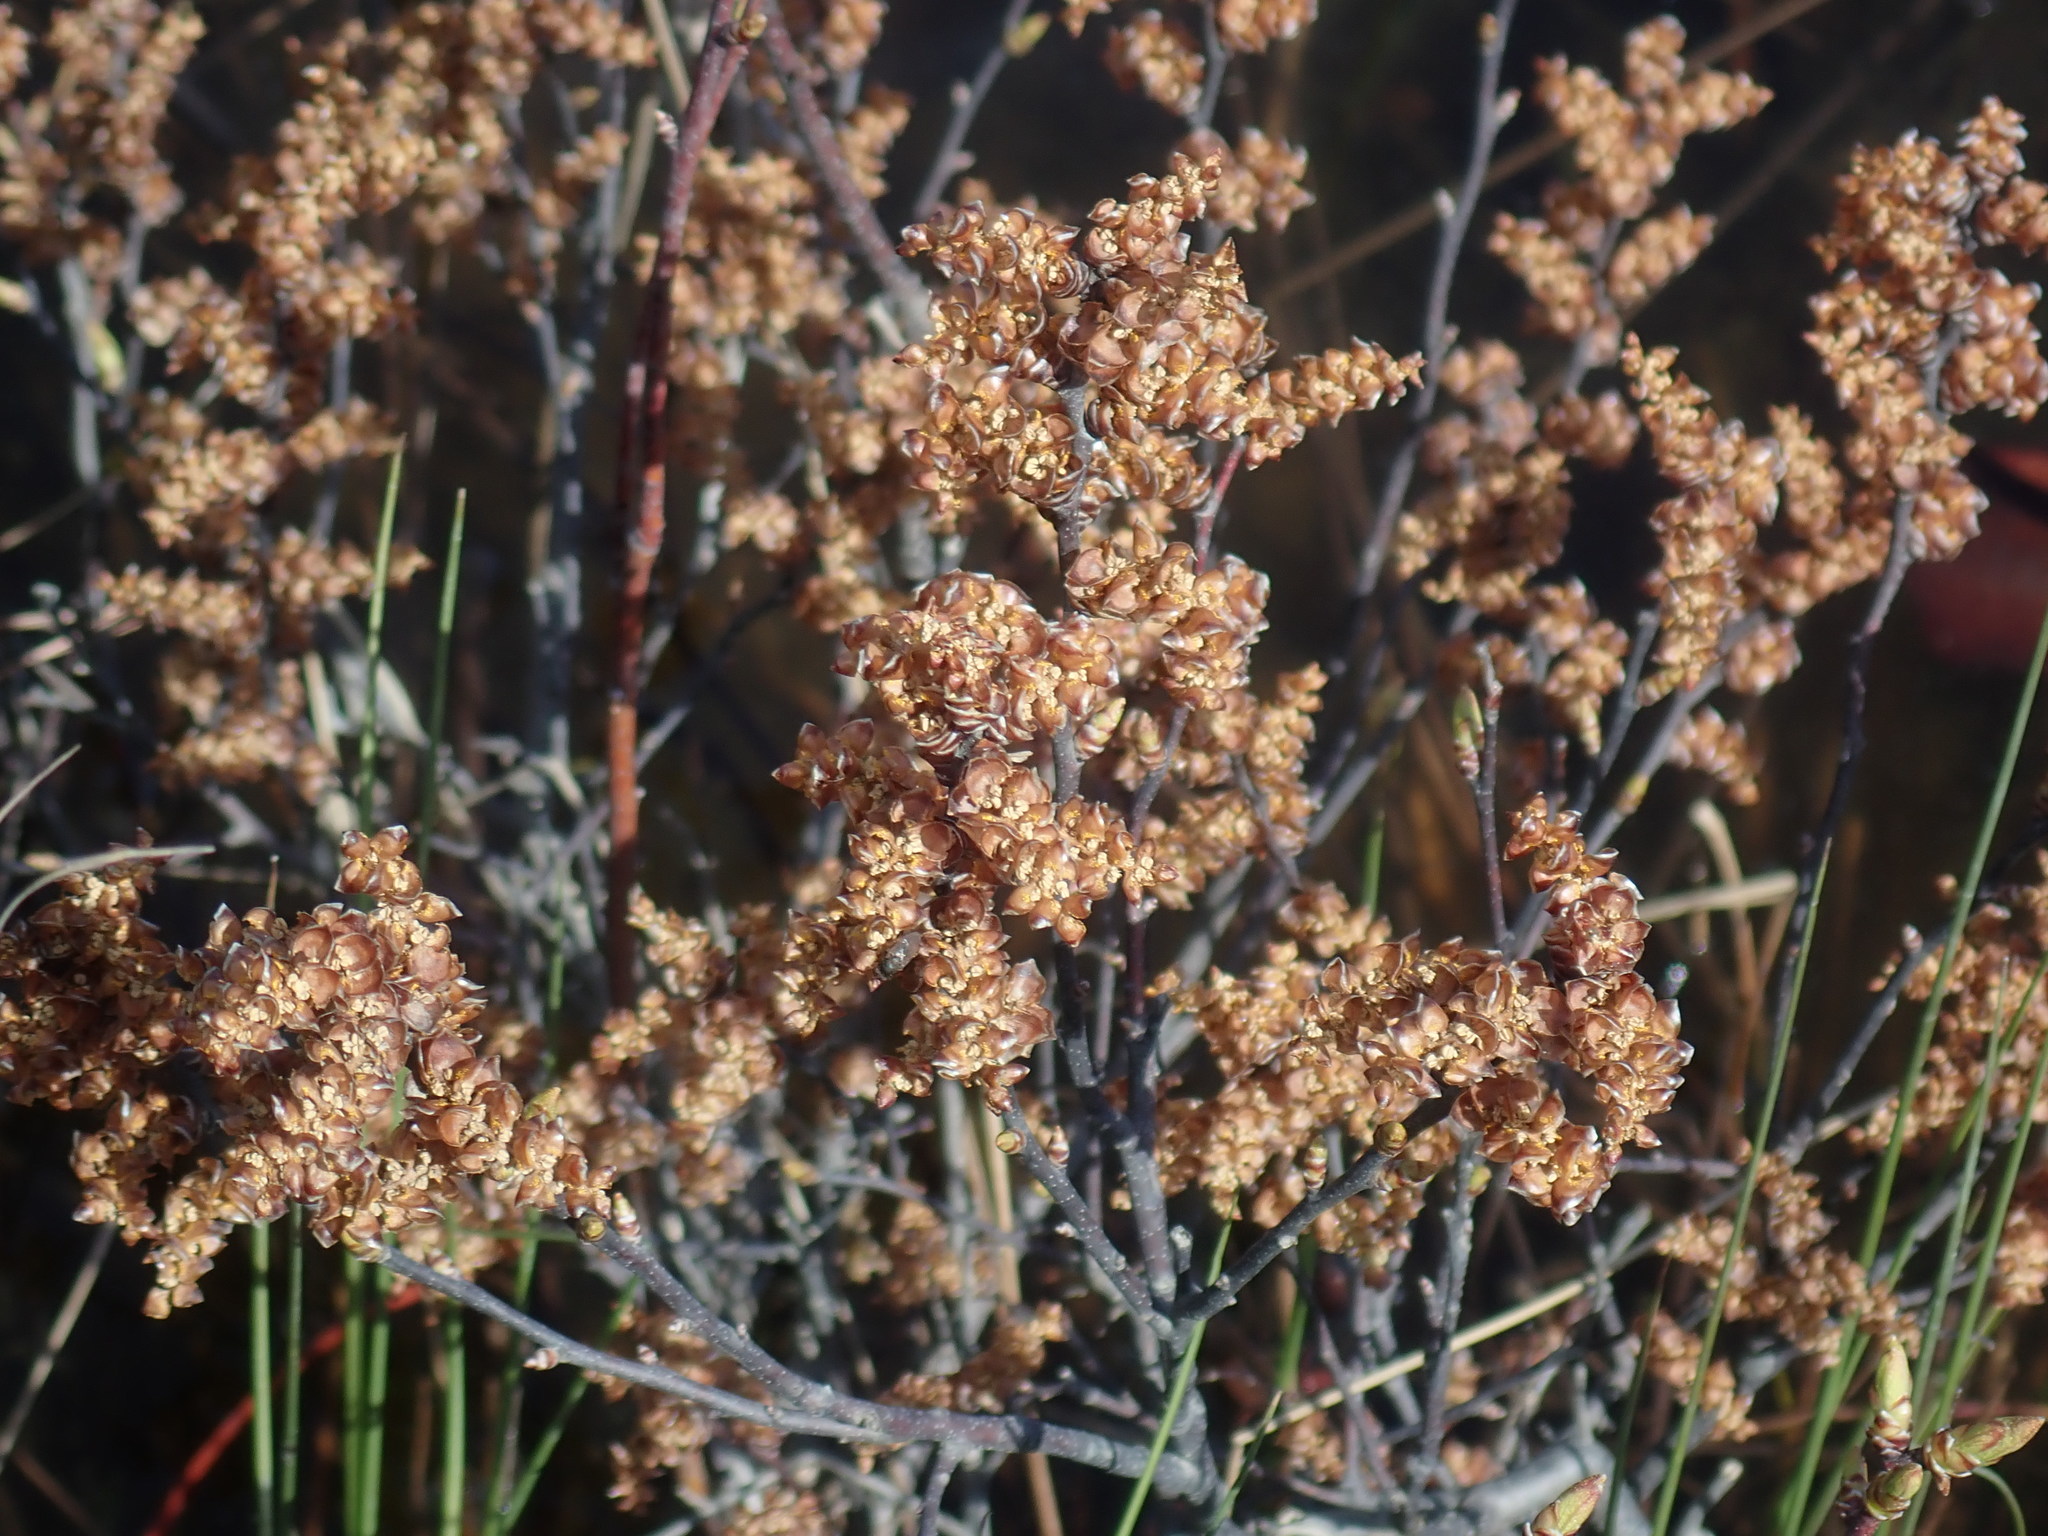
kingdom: Plantae
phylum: Tracheophyta
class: Magnoliopsida
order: Fagales
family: Myricaceae
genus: Myrica
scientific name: Myrica gale
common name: Sweet gale
